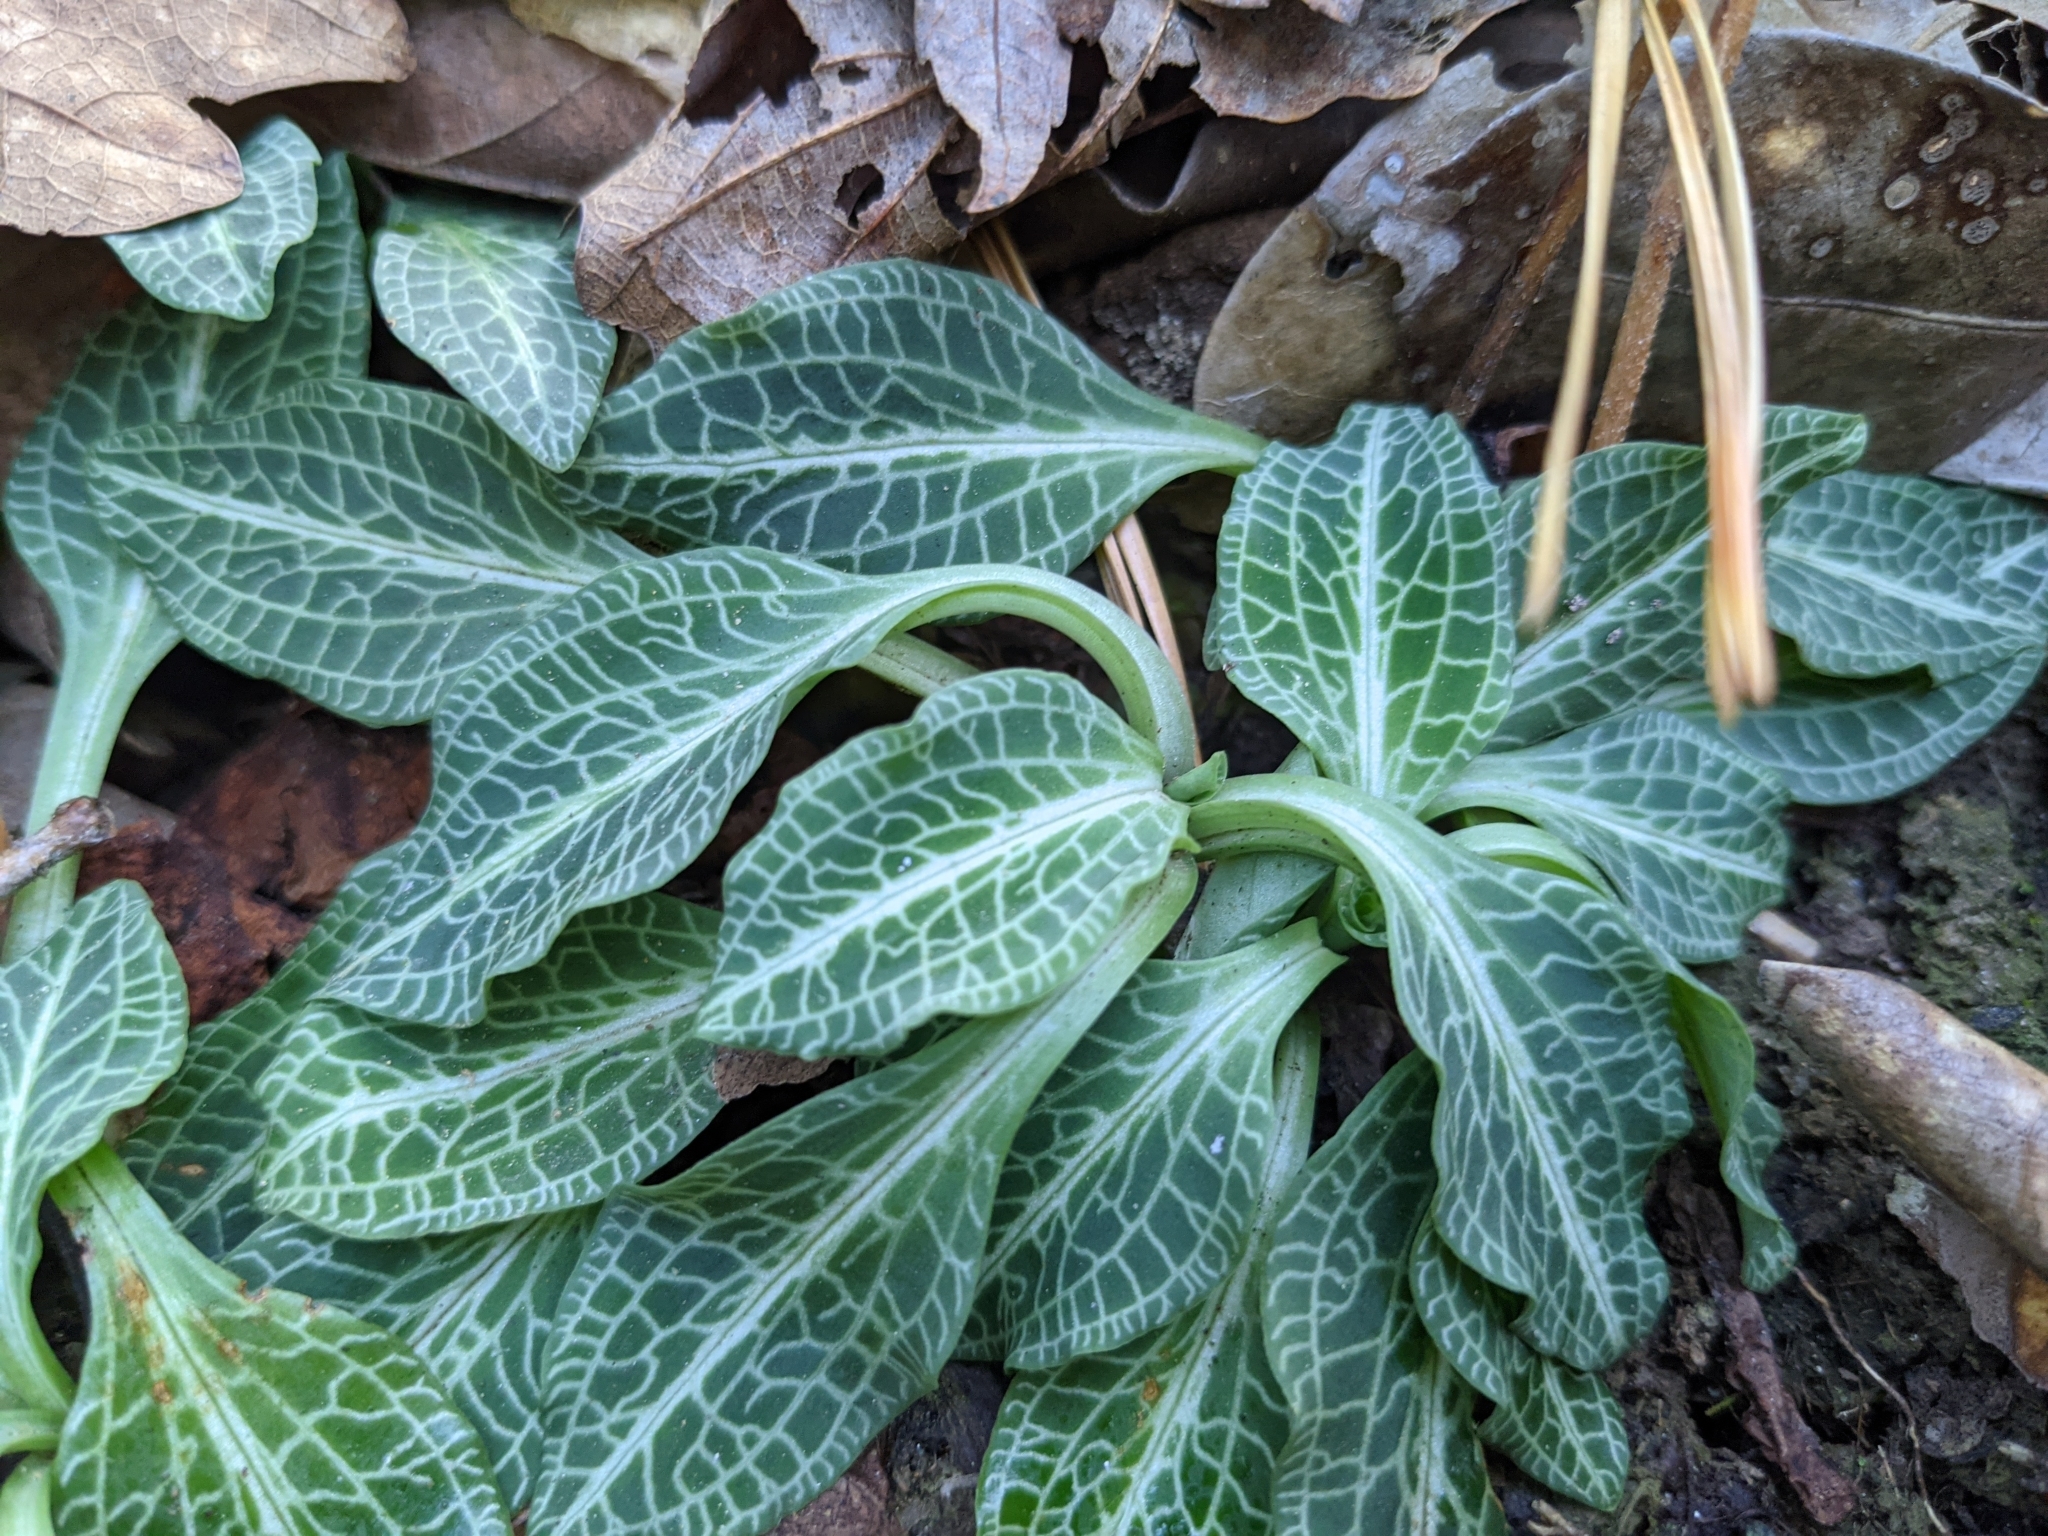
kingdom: Plantae
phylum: Tracheophyta
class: Liliopsida
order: Asparagales
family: Orchidaceae
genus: Goodyera
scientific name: Goodyera pubescens
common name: Downy rattlesnake-plantain
